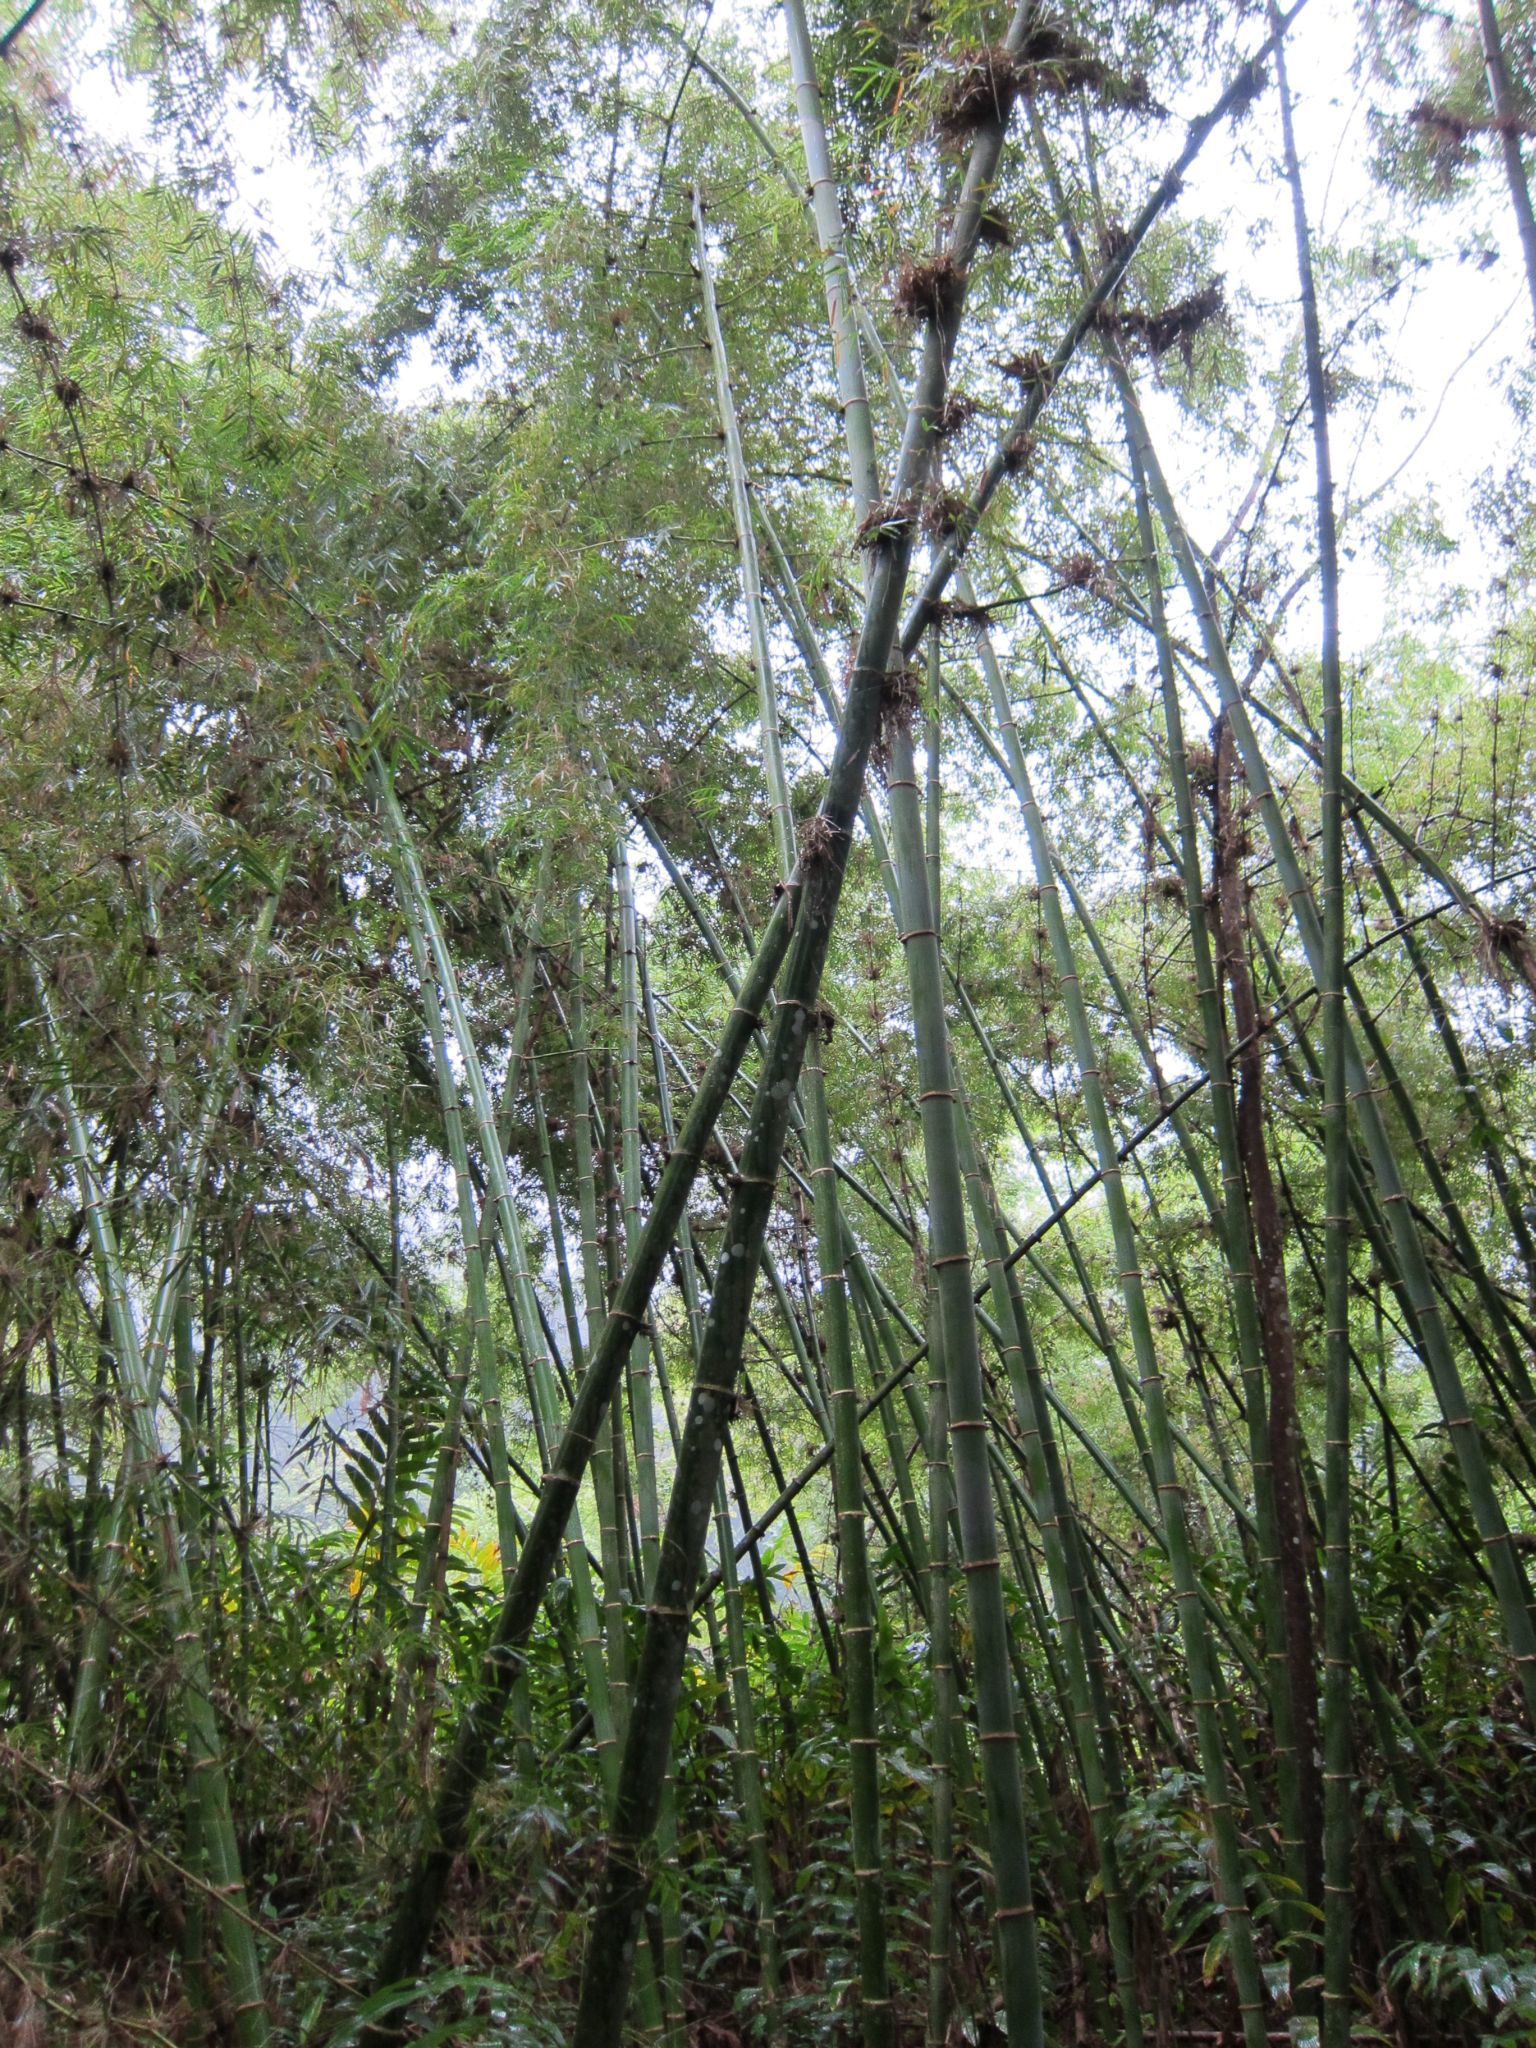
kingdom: Plantae
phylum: Tracheophyta
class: Liliopsida
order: Poales
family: Poaceae
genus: Valiha
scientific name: Valiha diffusa
